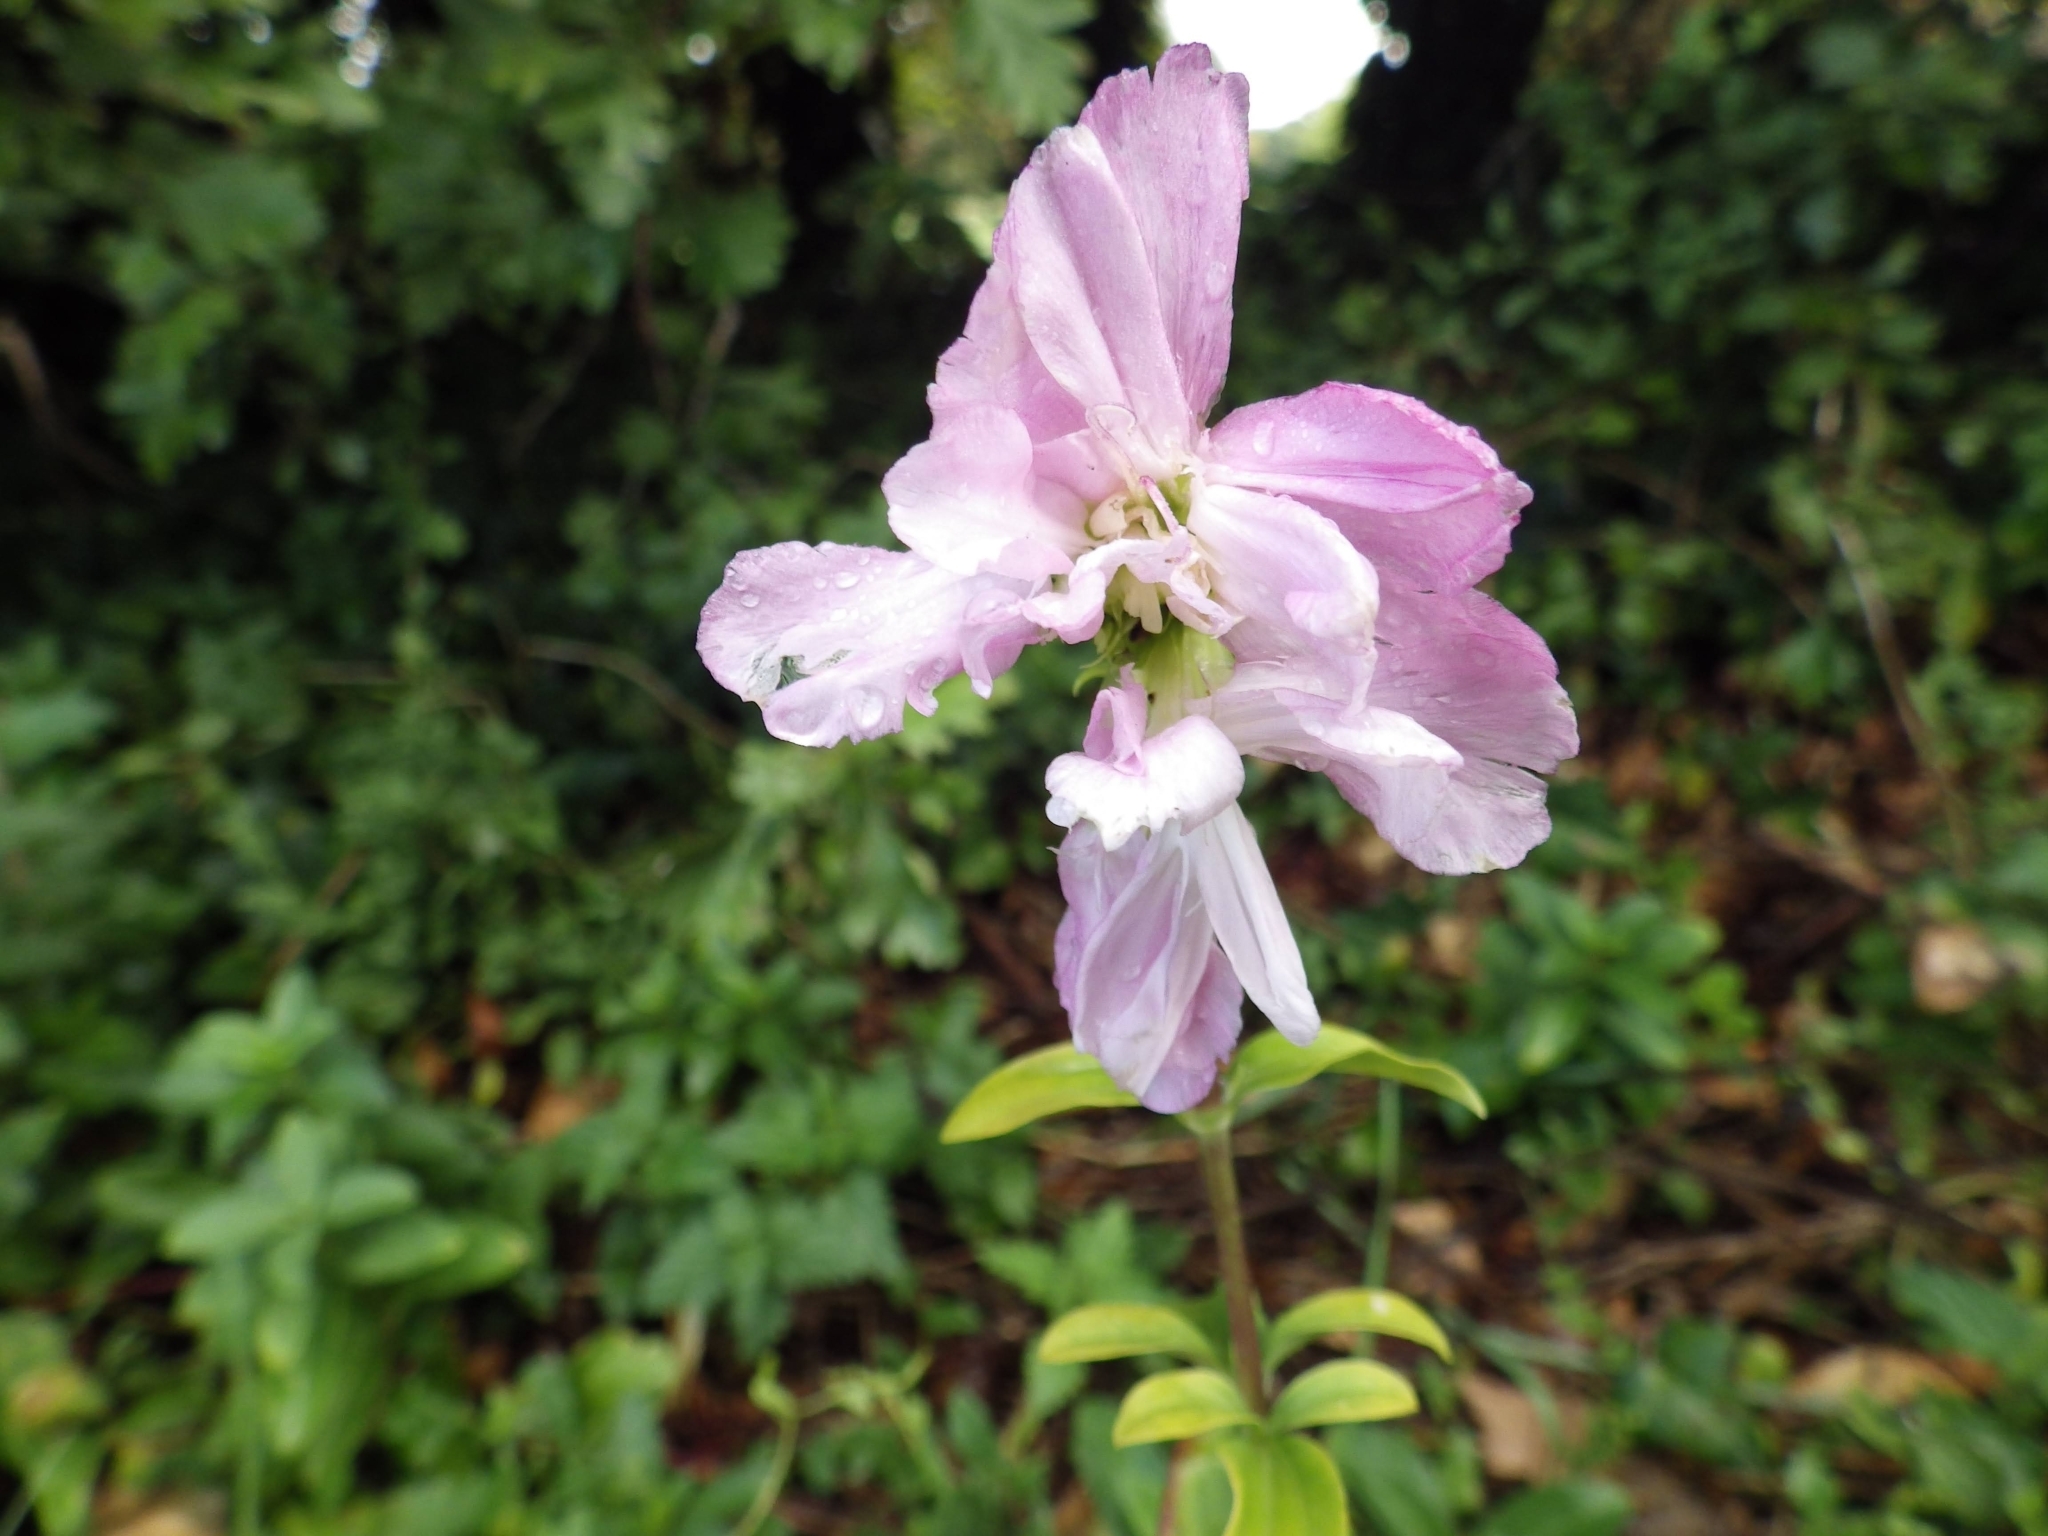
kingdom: Plantae
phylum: Tracheophyta
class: Magnoliopsida
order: Caryophyllales
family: Caryophyllaceae
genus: Saponaria
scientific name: Saponaria officinalis
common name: Soapwort
